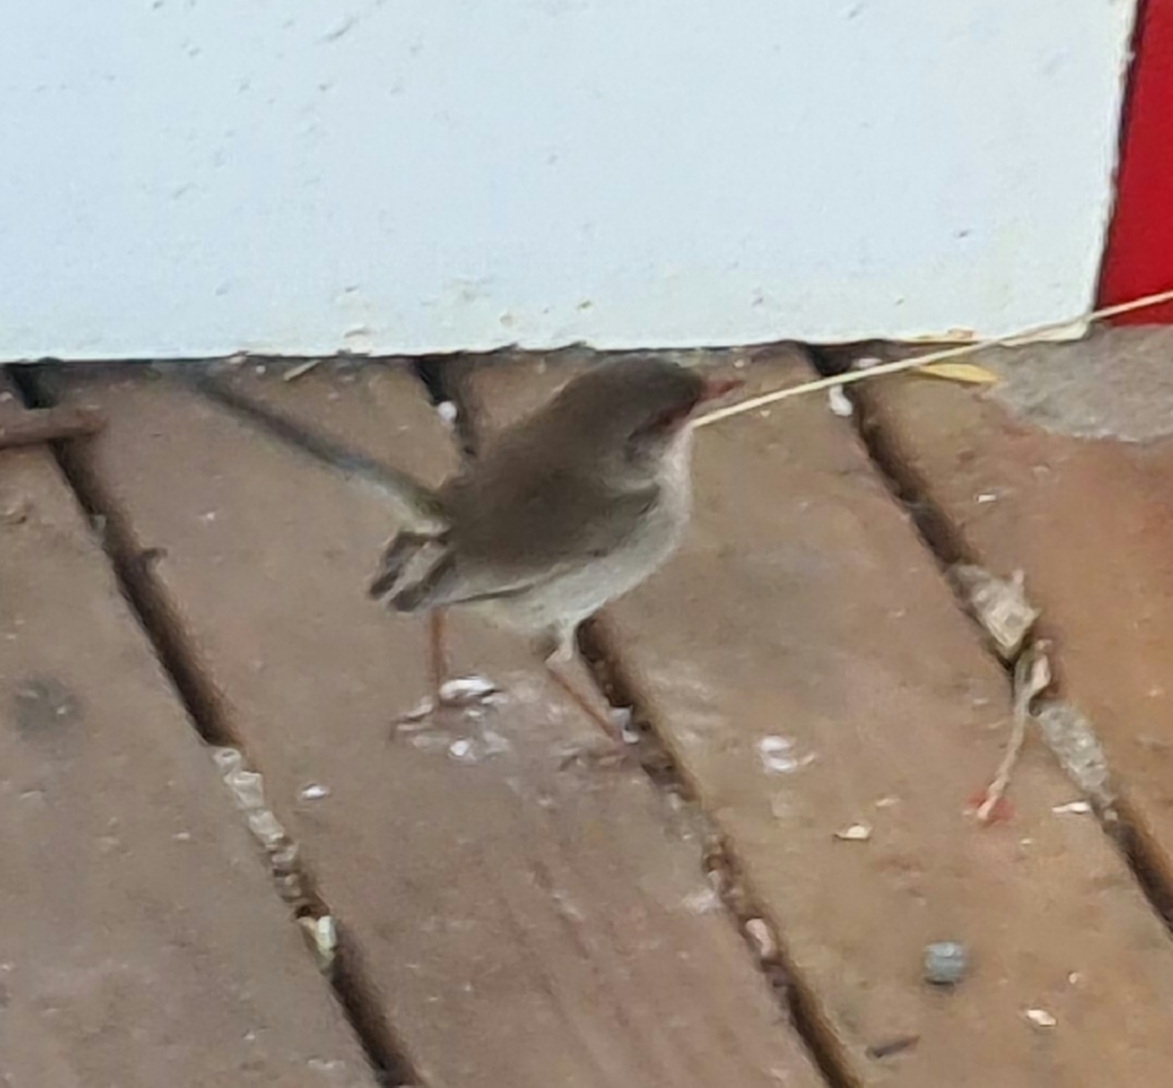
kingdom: Animalia
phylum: Chordata
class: Aves
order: Passeriformes
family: Maluridae
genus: Malurus
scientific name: Malurus cyaneus
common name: Superb fairywren
